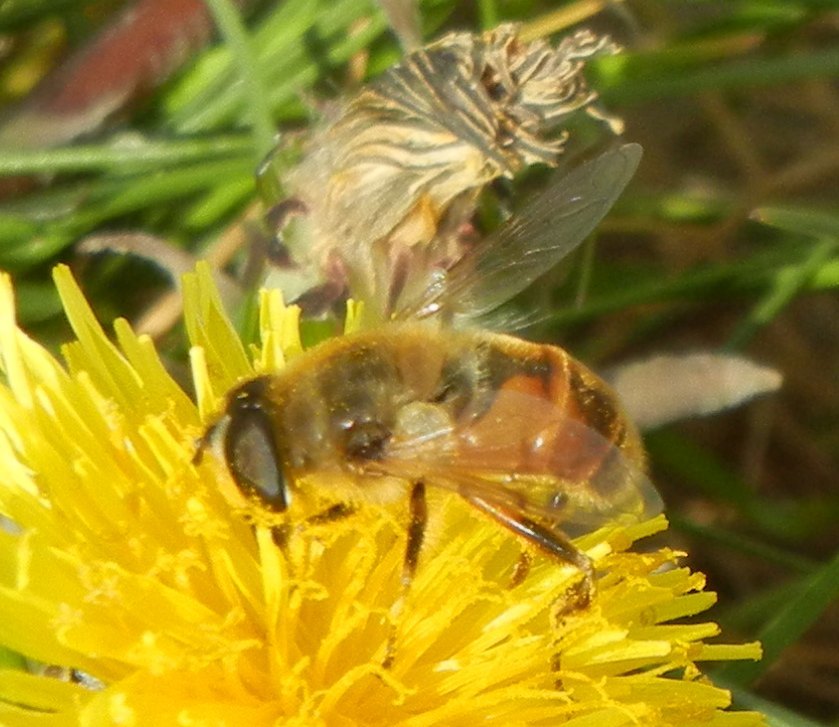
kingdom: Animalia
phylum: Arthropoda
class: Insecta
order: Diptera
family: Syrphidae
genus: Eristalis
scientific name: Eristalis tenax
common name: Drone fly
